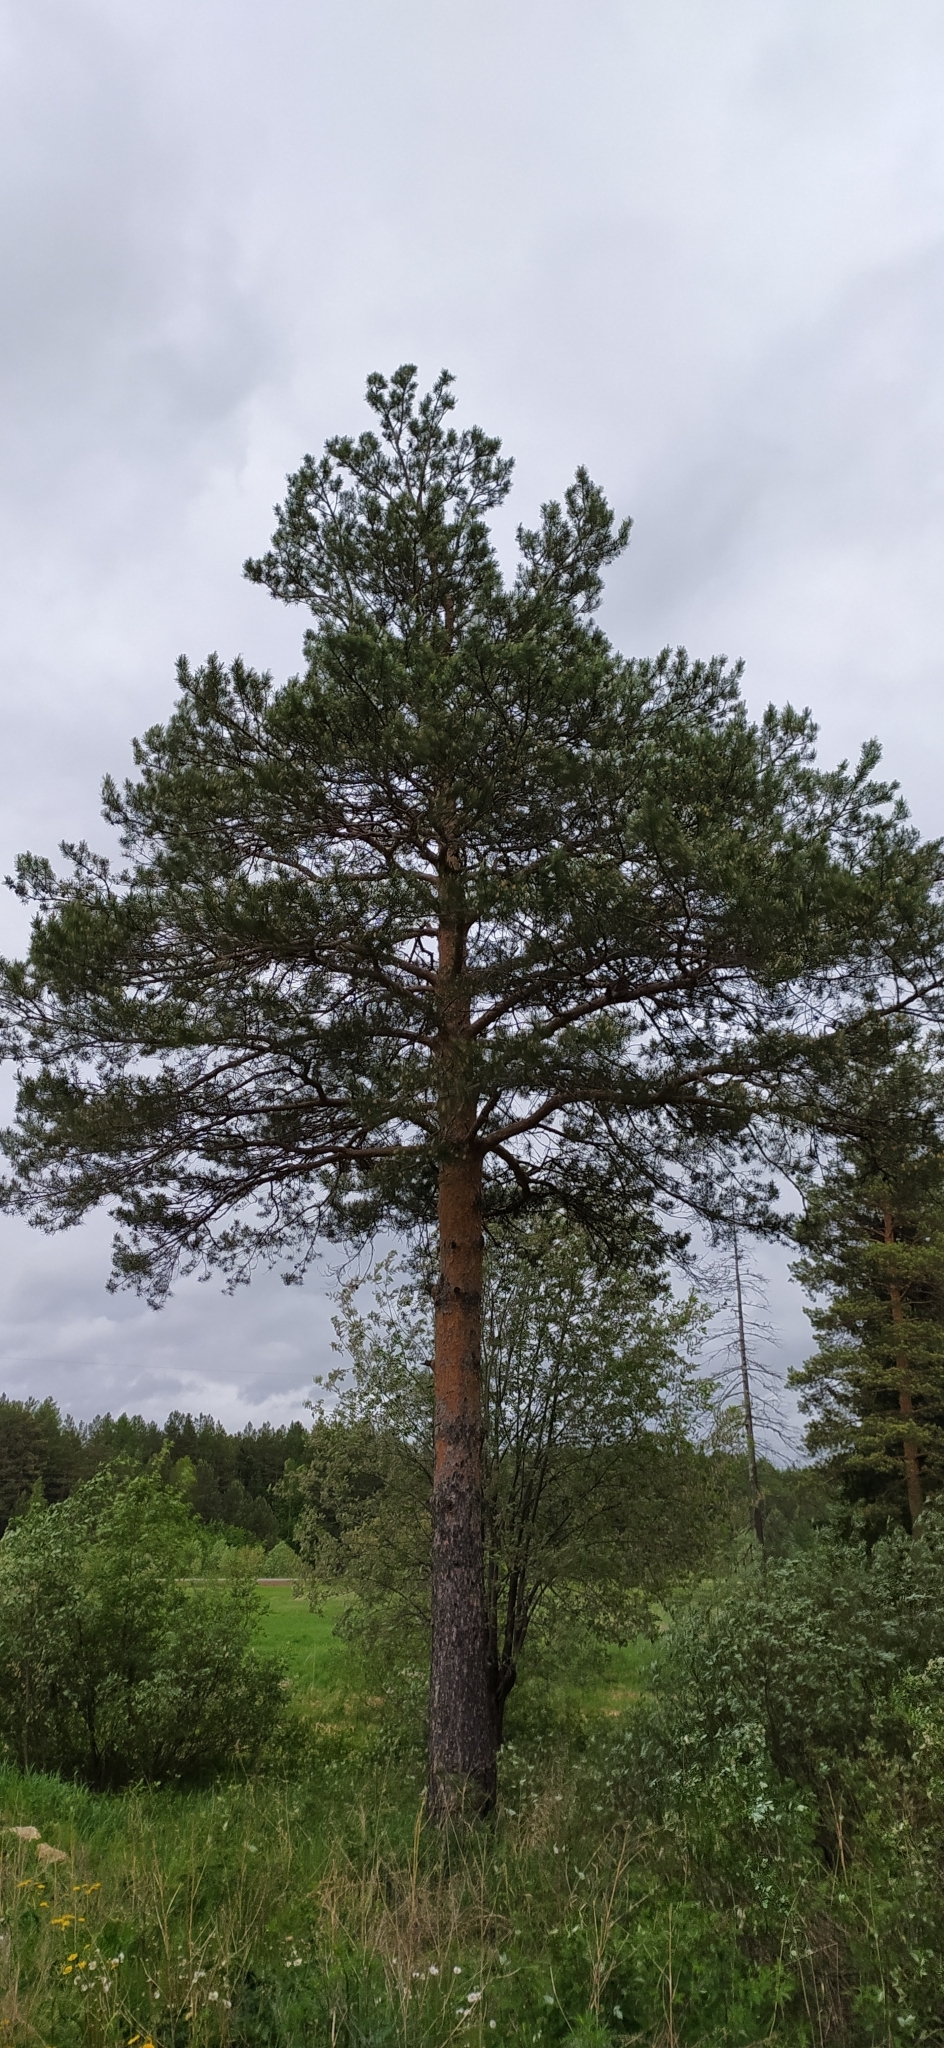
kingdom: Plantae
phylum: Tracheophyta
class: Pinopsida
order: Pinales
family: Pinaceae
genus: Pinus
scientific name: Pinus sylvestris
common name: Scots pine
